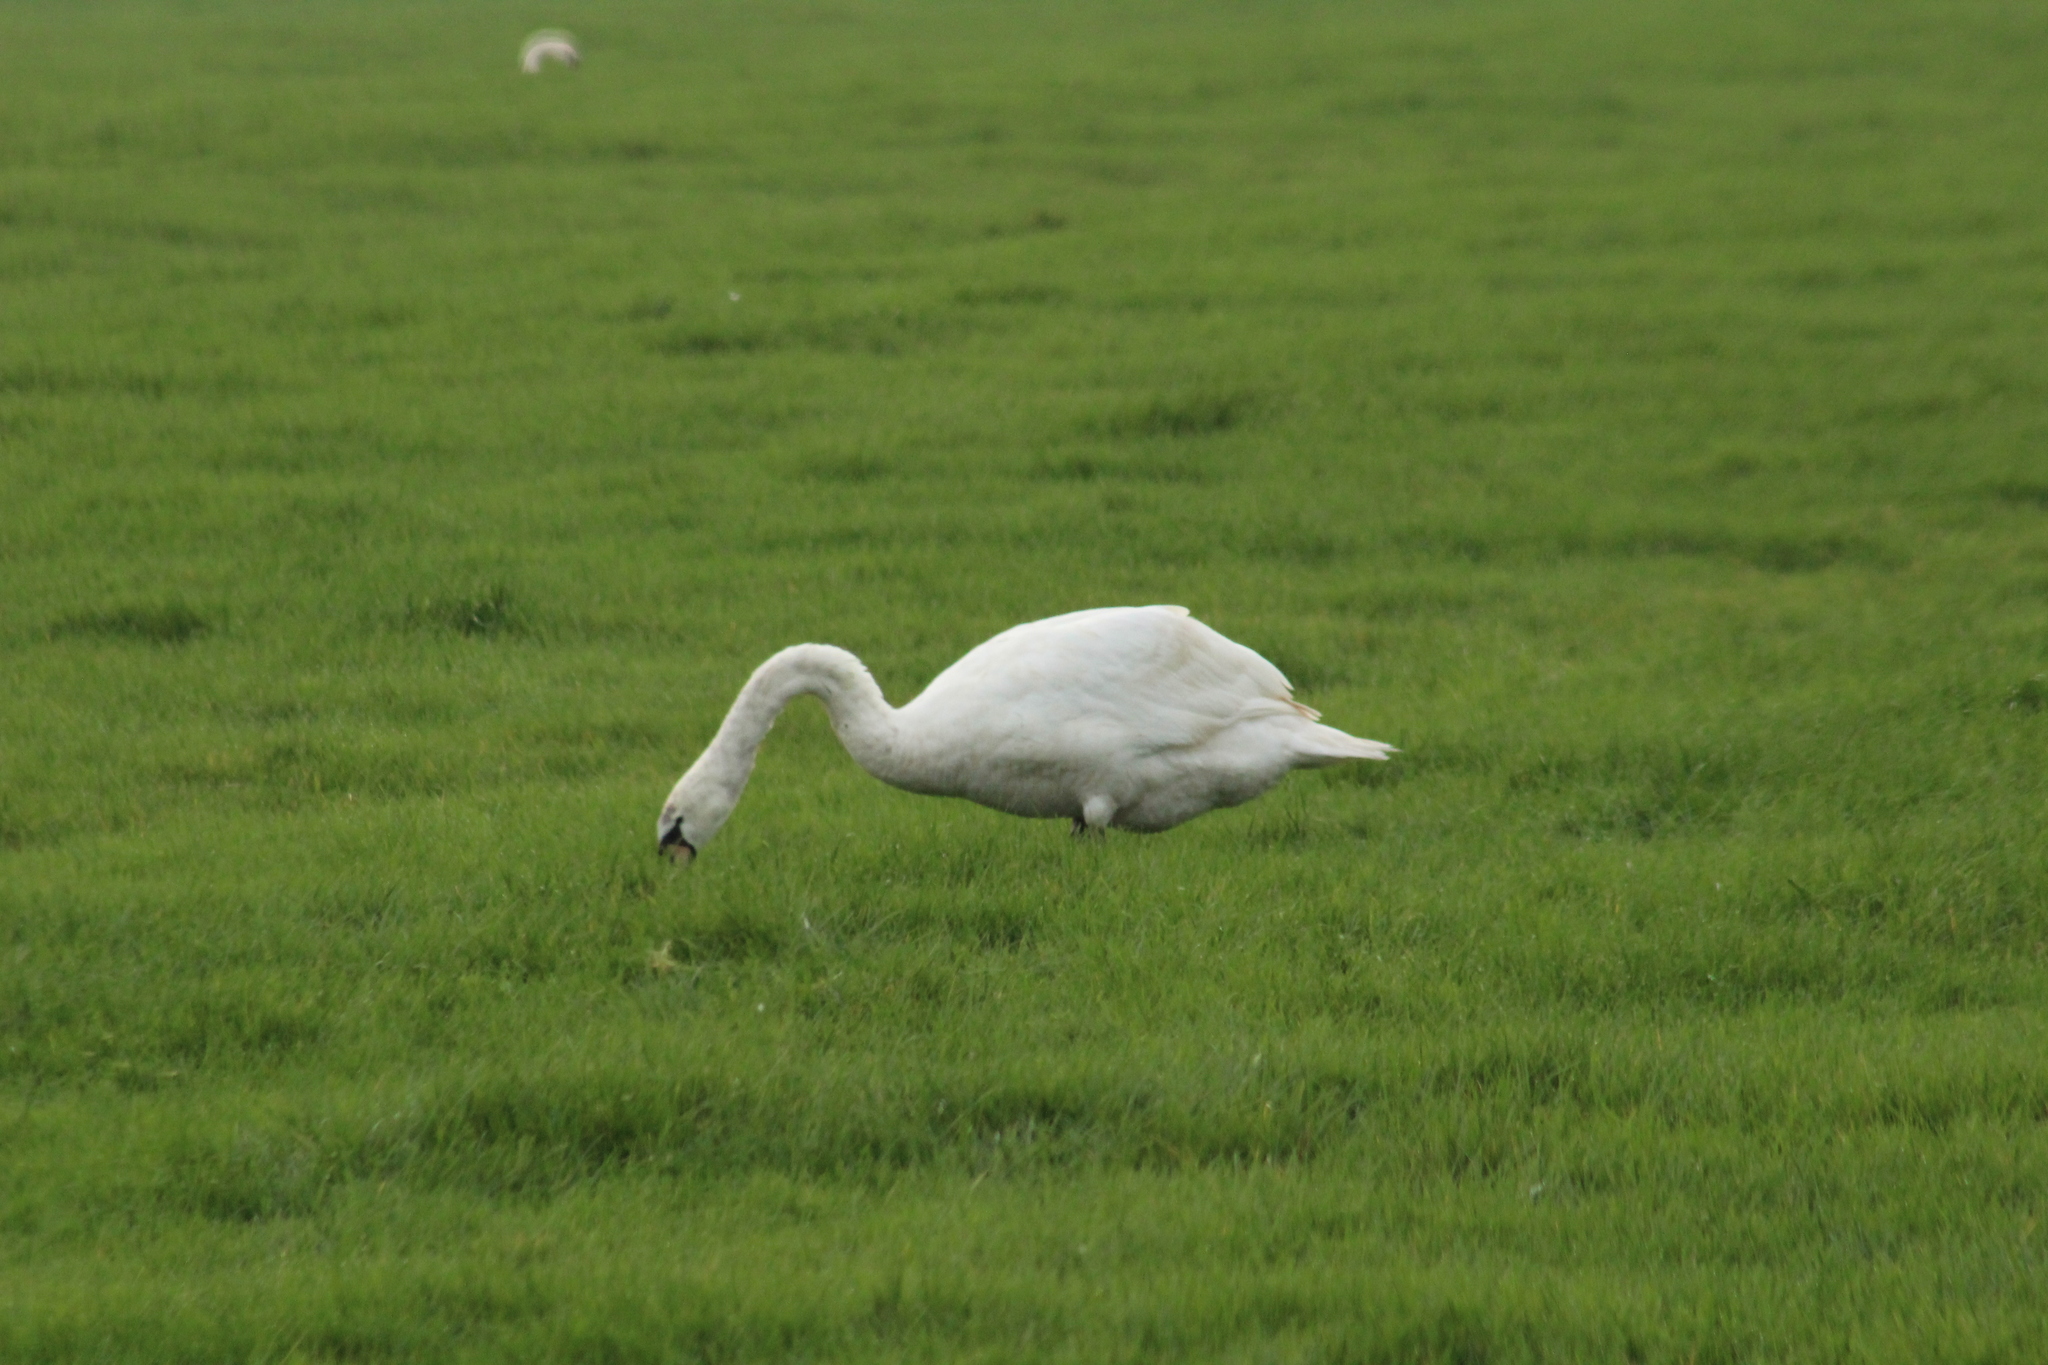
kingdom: Animalia
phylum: Chordata
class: Aves
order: Anseriformes
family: Anatidae
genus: Cygnus
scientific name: Cygnus olor
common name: Mute swan
